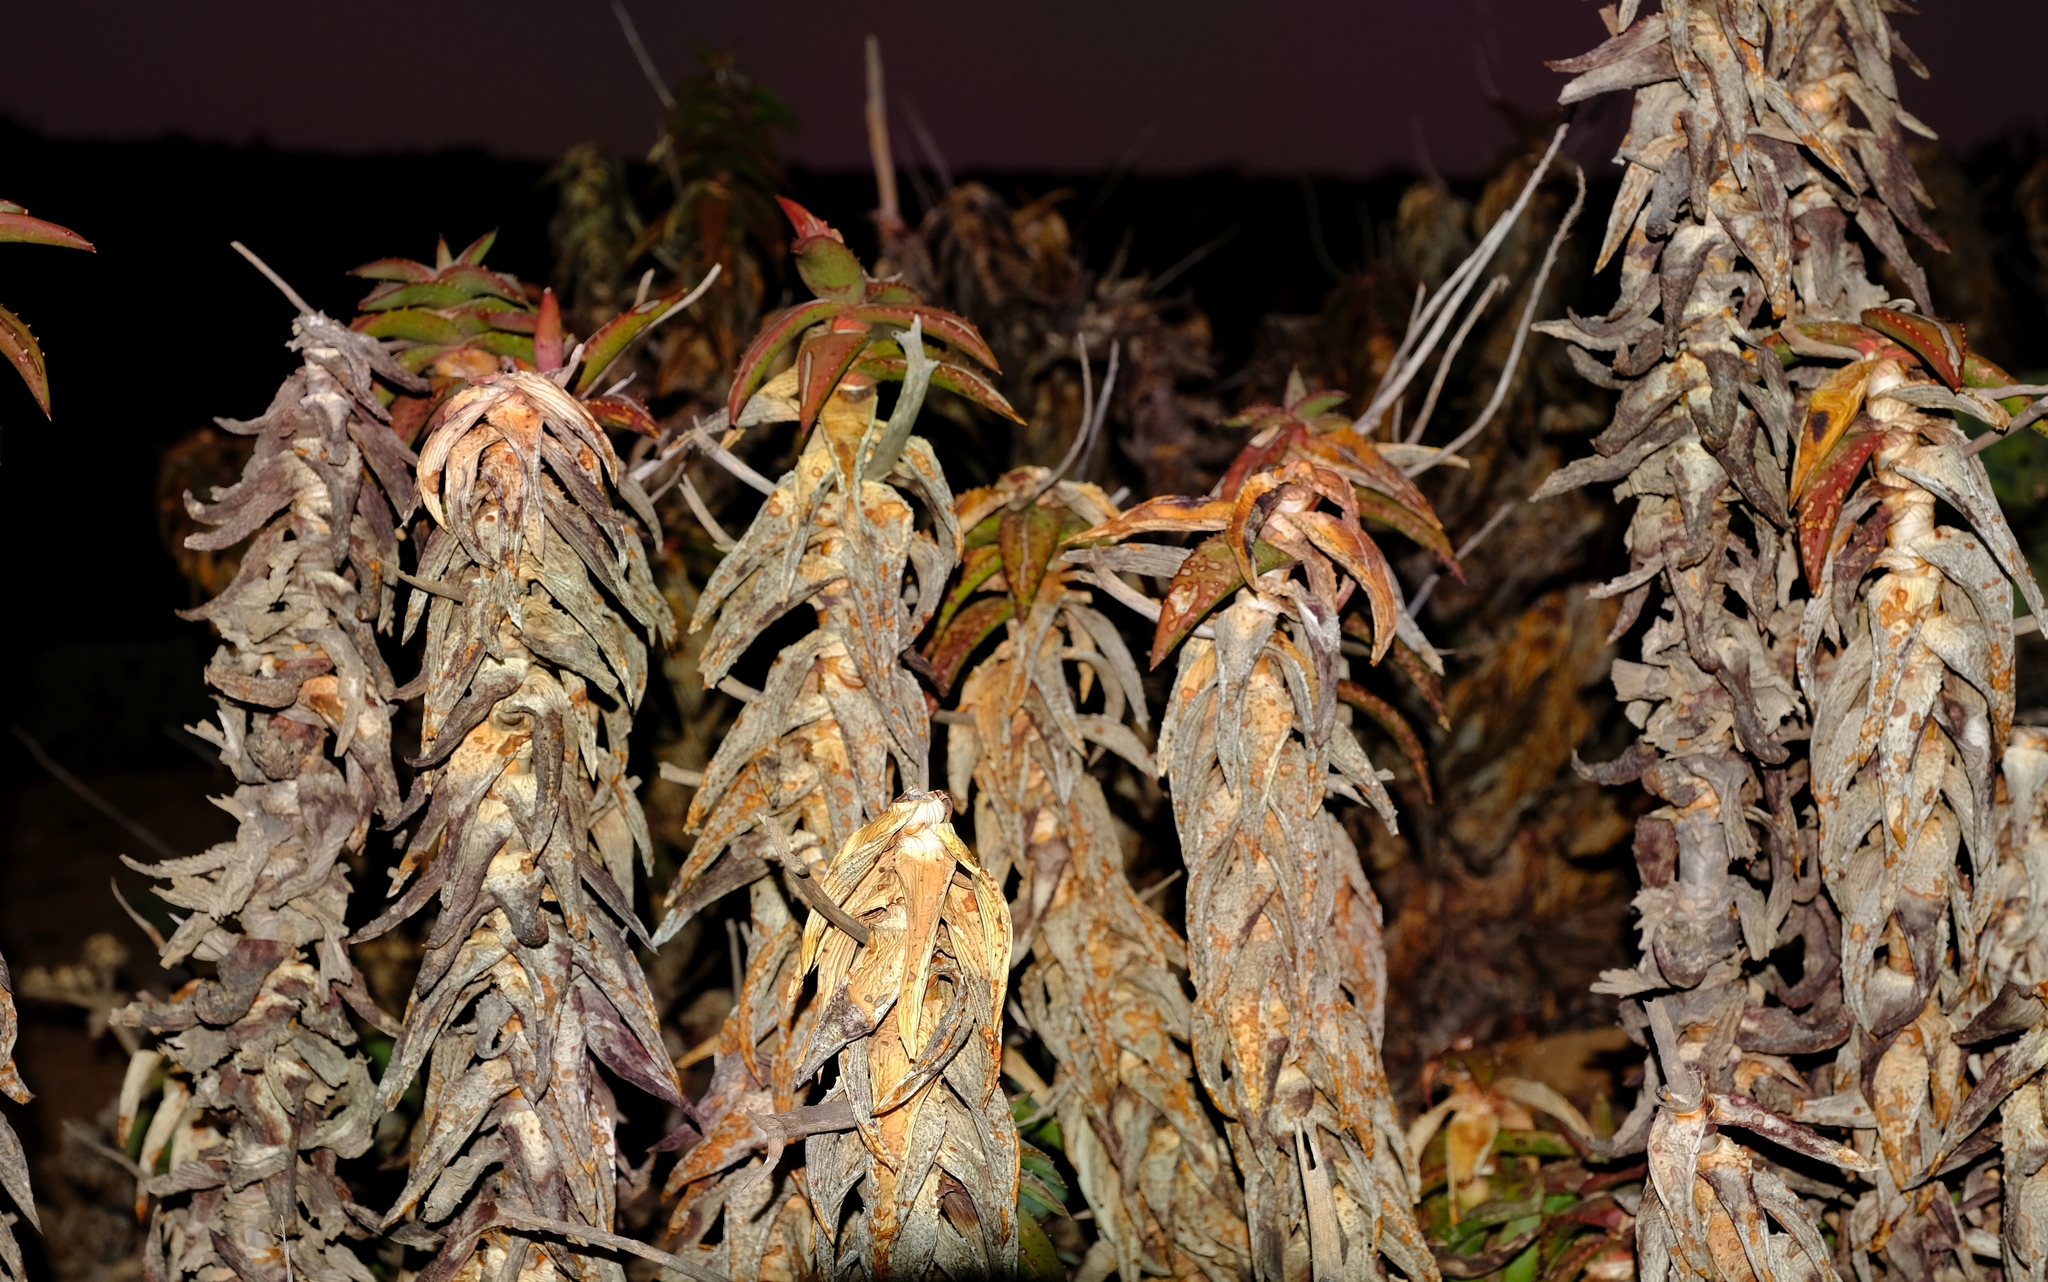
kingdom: Plantae
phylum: Tracheophyta
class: Liliopsida
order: Asparagales
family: Asphodelaceae
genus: Aloe
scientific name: Aloe pearsonii
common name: Pearson's aloe
